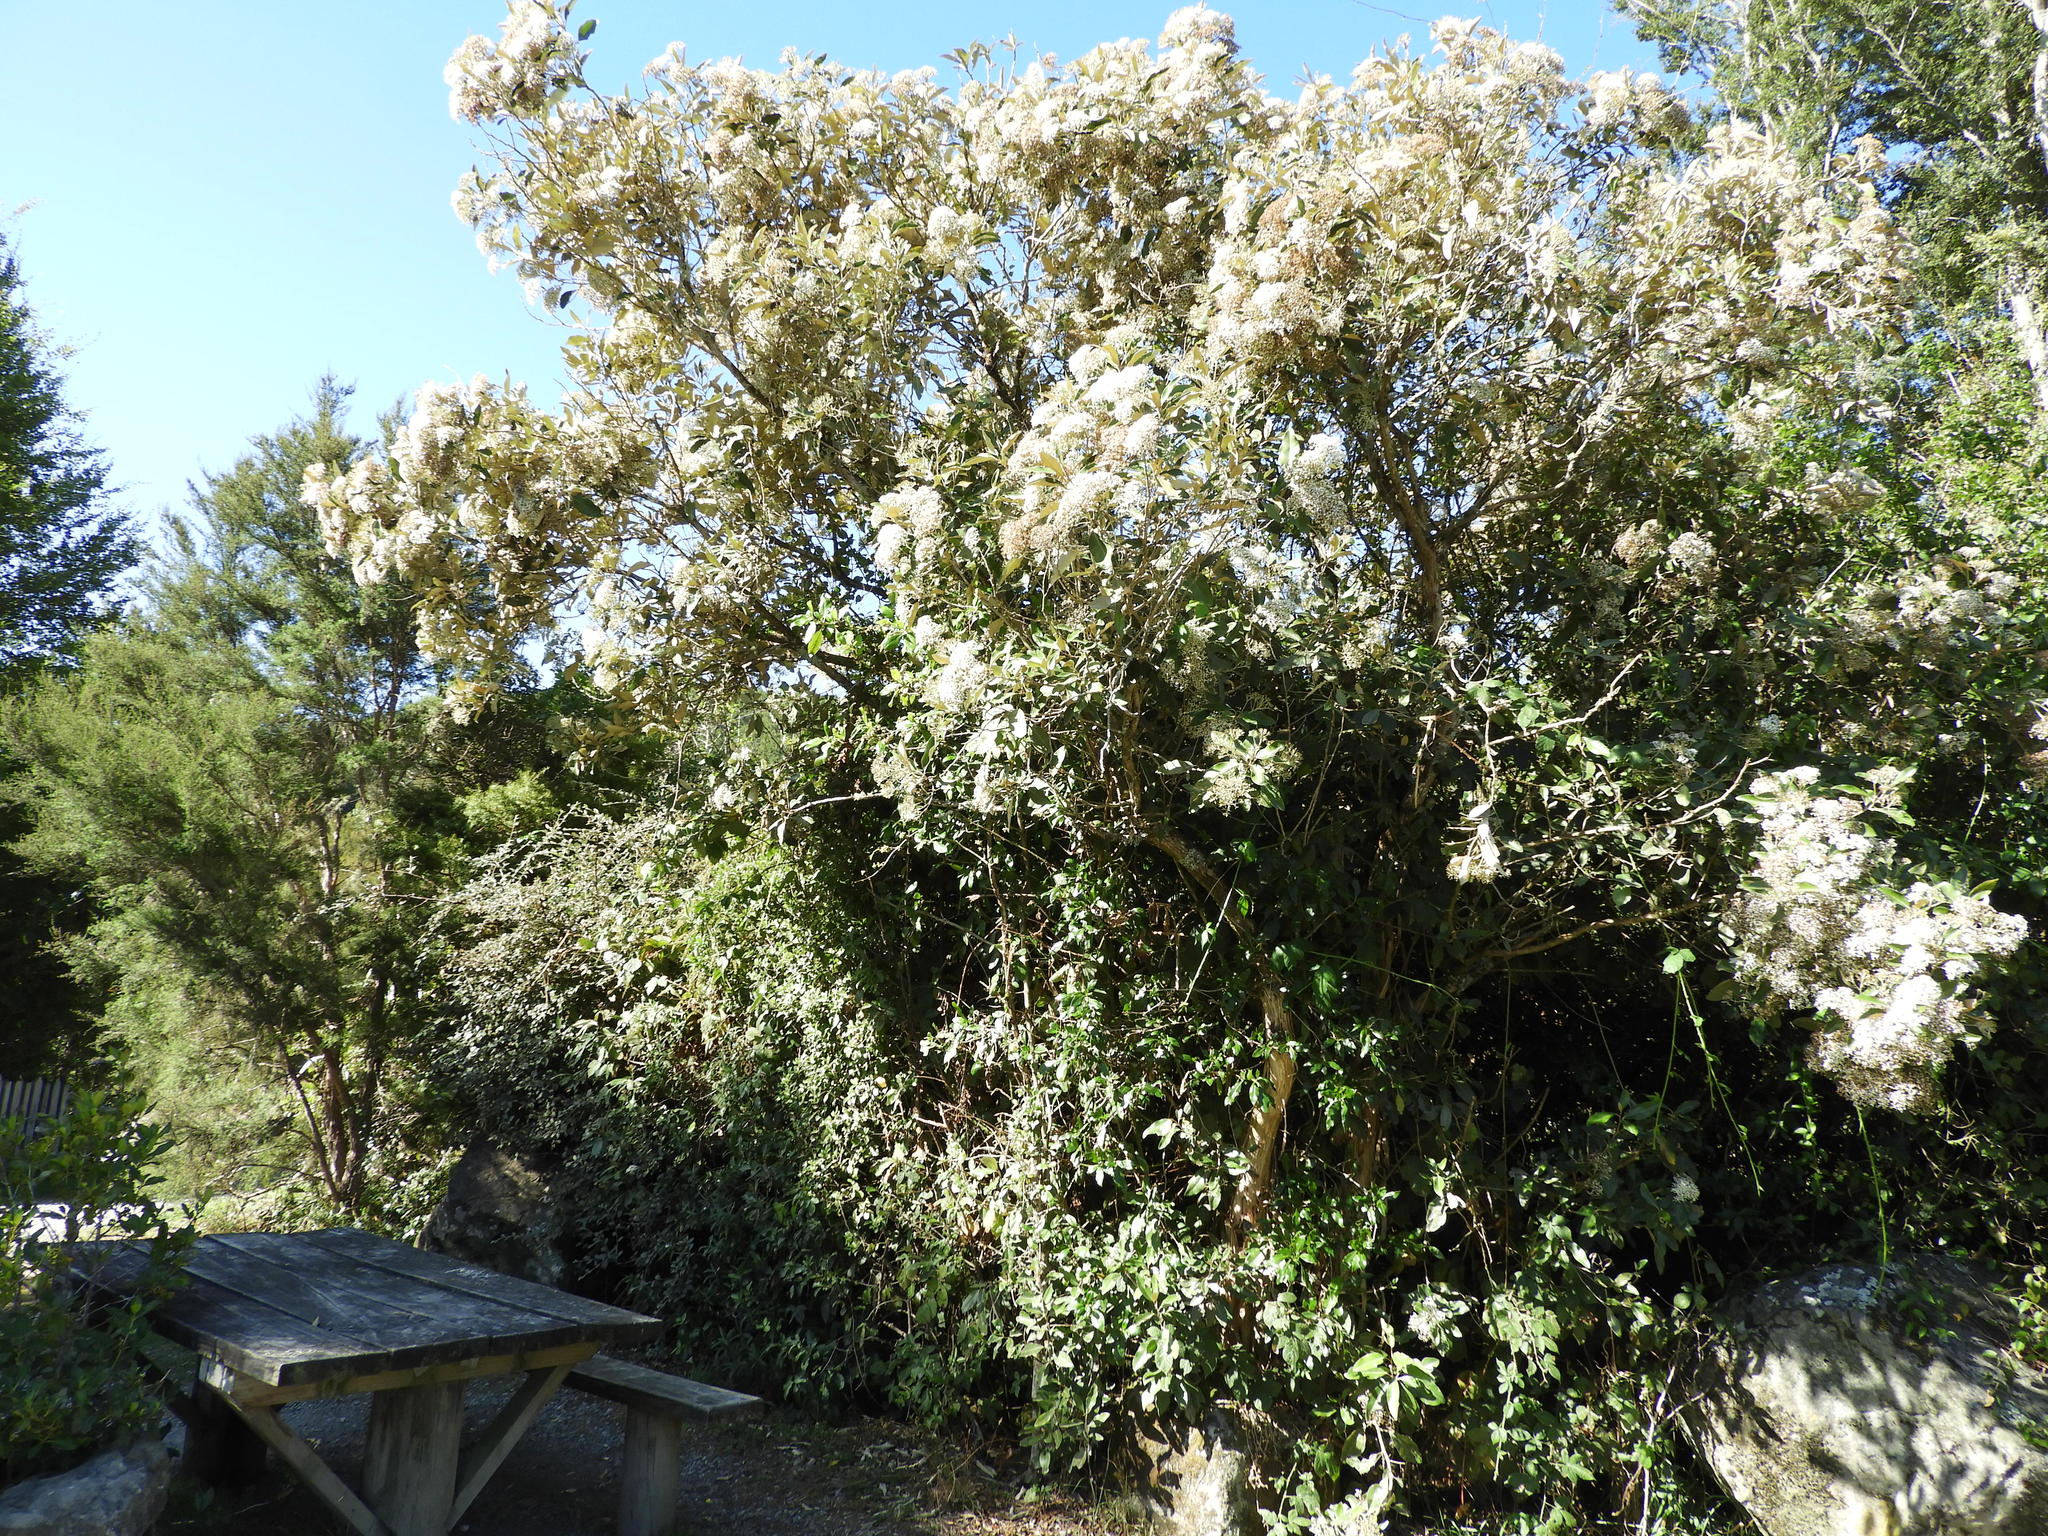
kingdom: Plantae
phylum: Tracheophyta
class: Magnoliopsida
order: Asterales
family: Asteraceae
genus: Olearia
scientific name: Olearia avicenniifolia
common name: Mangrove-leaf daisybush
